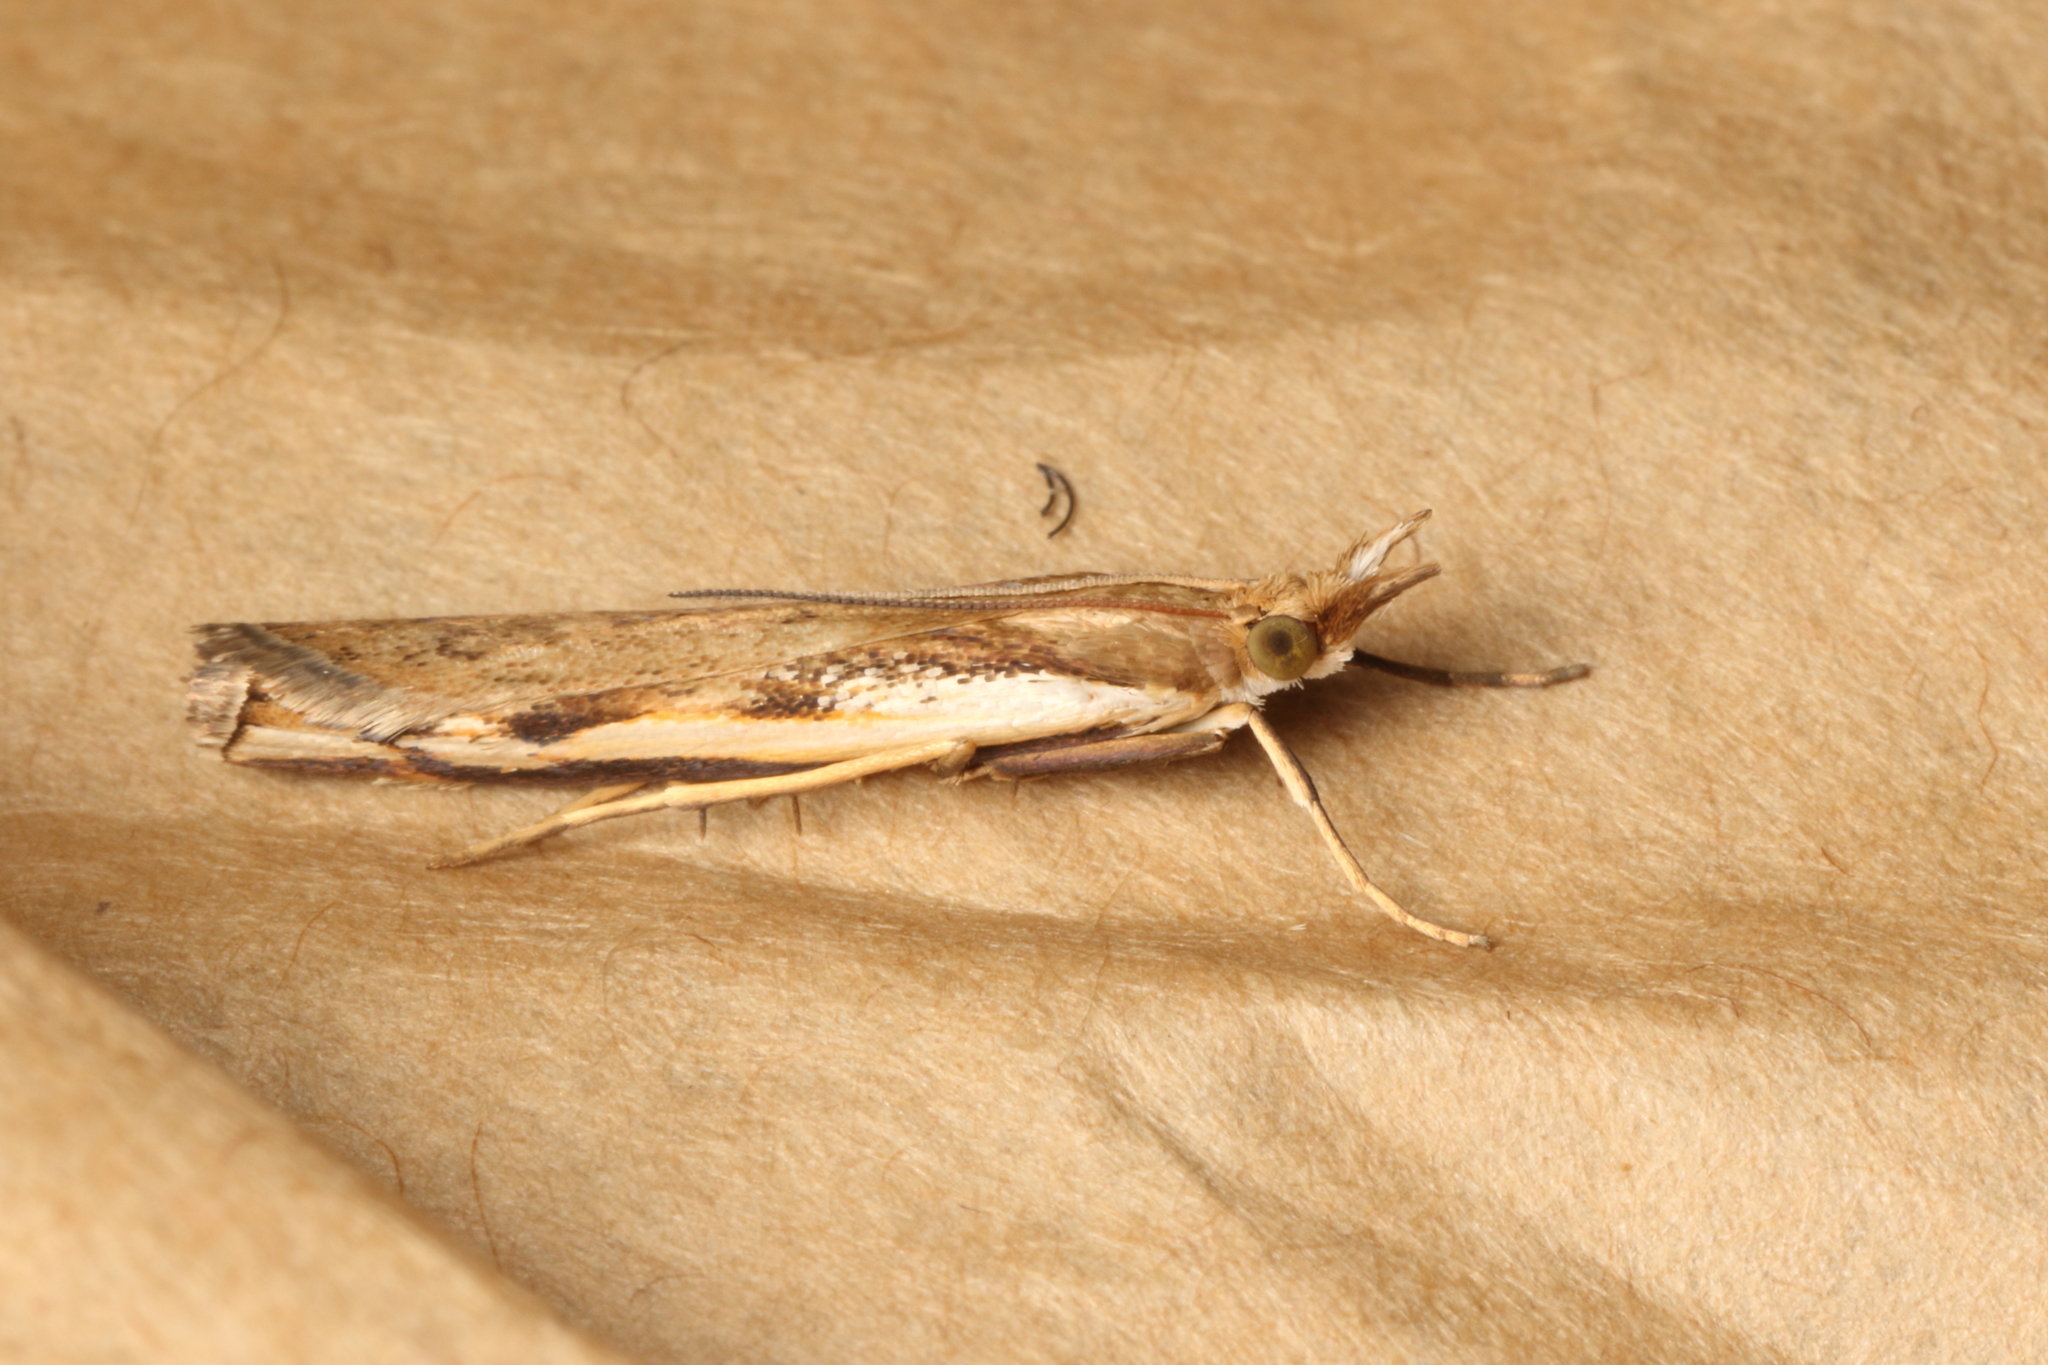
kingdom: Animalia
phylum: Arthropoda
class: Insecta
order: Lepidoptera
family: Crambidae
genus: Orocrambus
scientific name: Orocrambus flexuosellus
